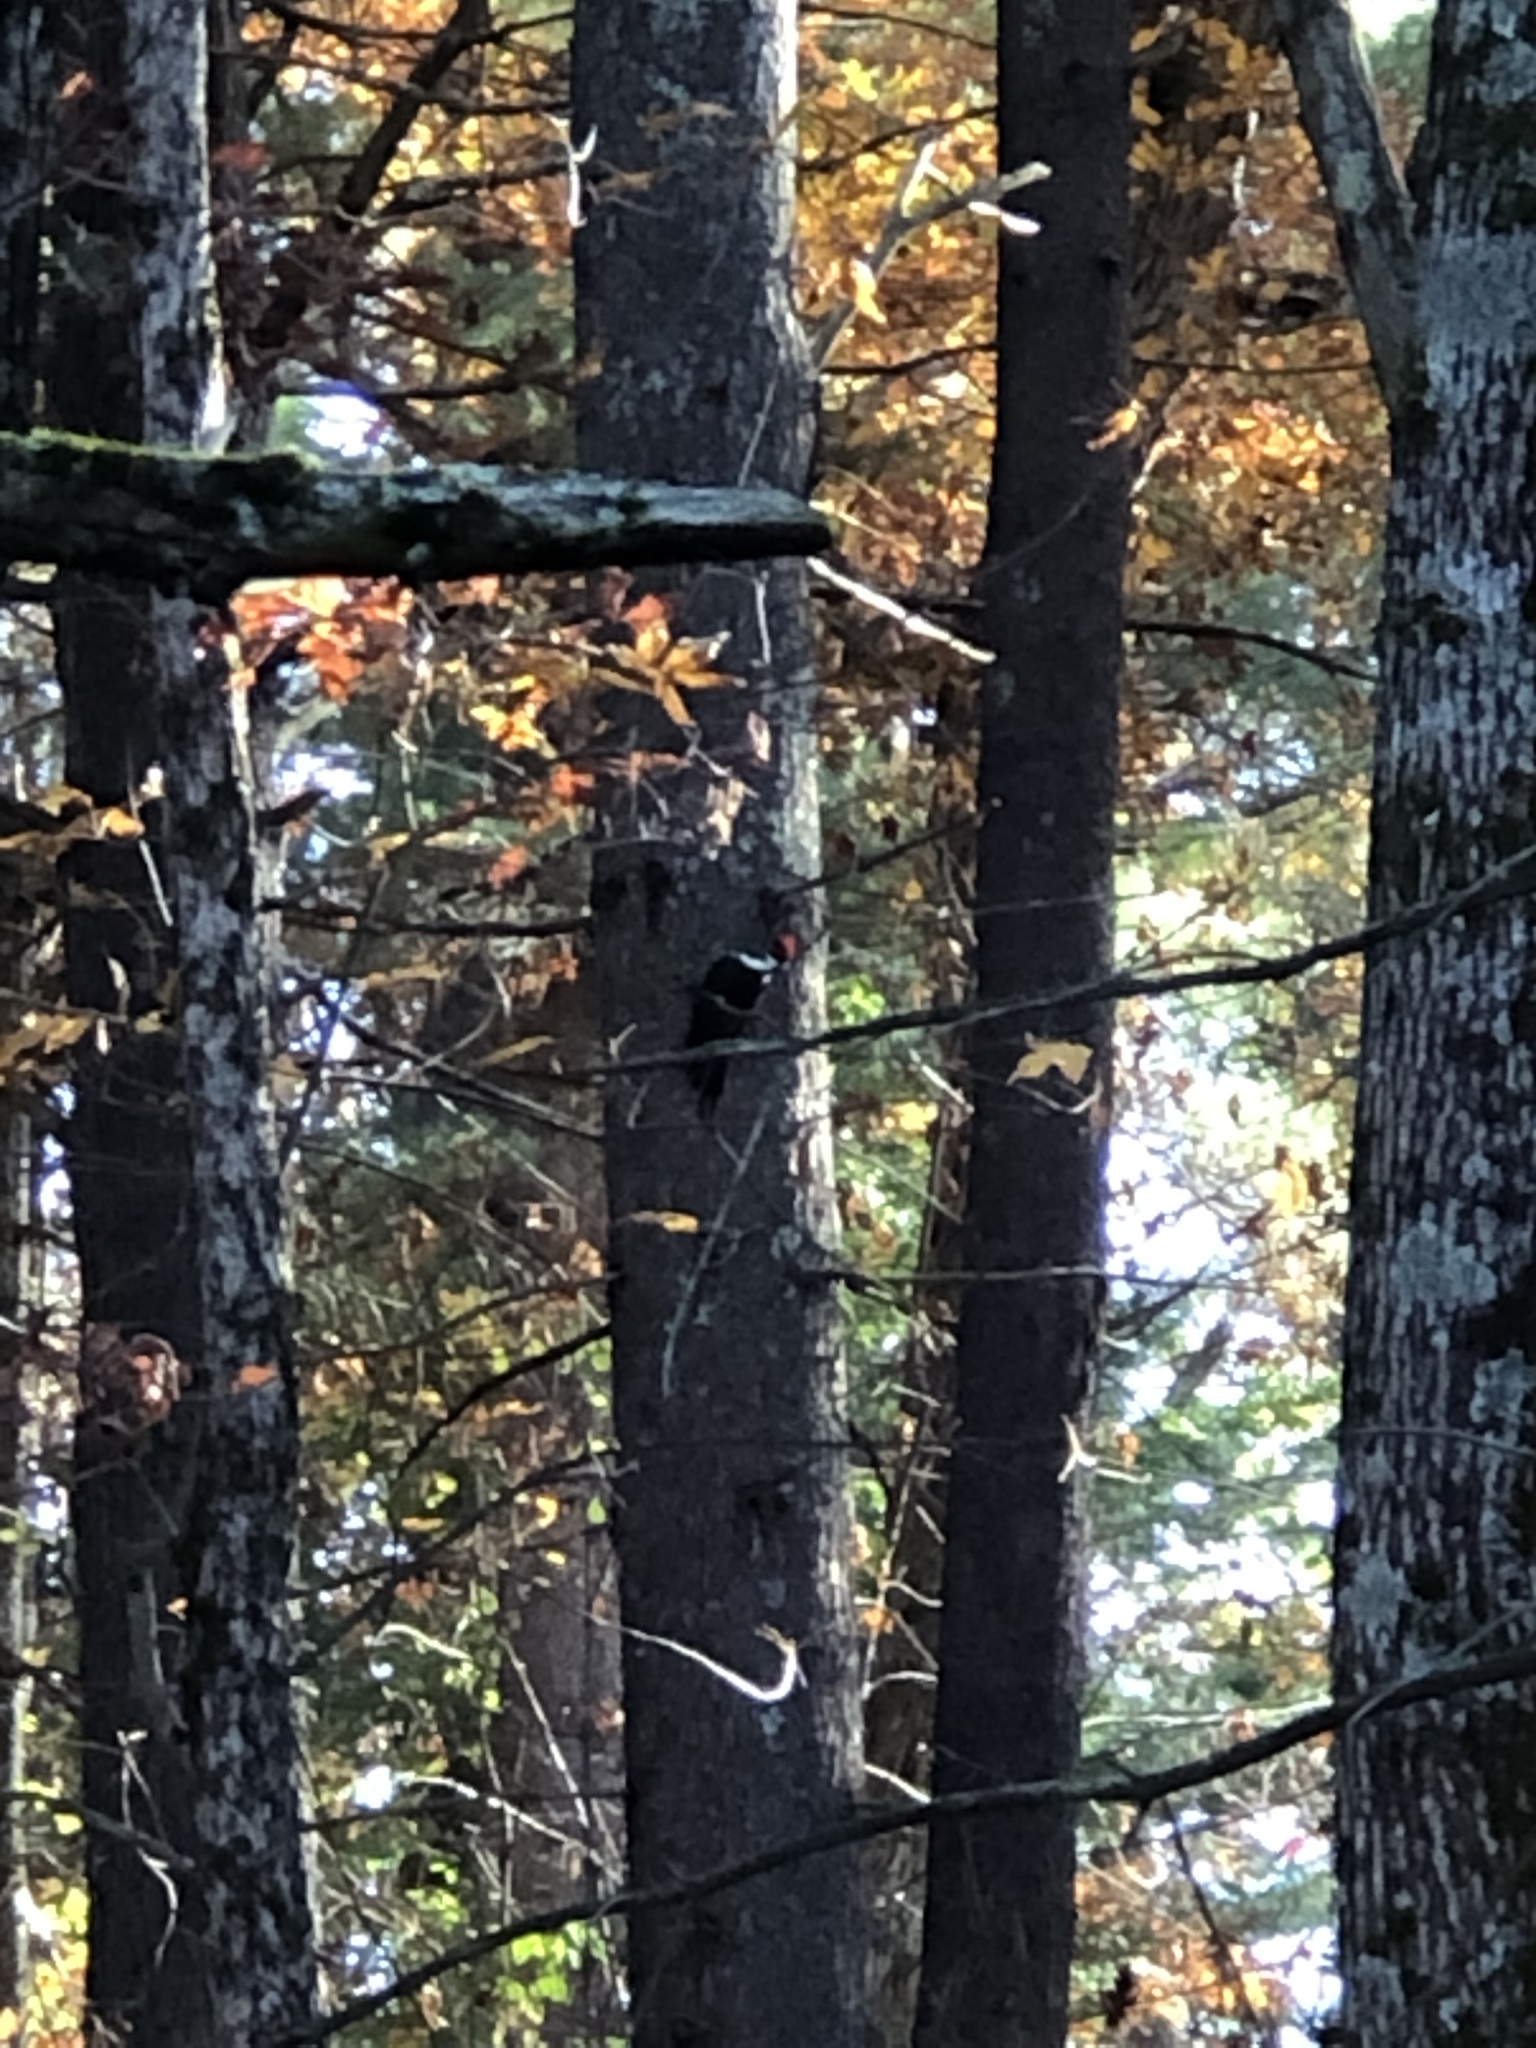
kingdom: Animalia
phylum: Chordata
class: Aves
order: Piciformes
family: Picidae
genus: Dryocopus
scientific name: Dryocopus pileatus
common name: Pileated woodpecker
